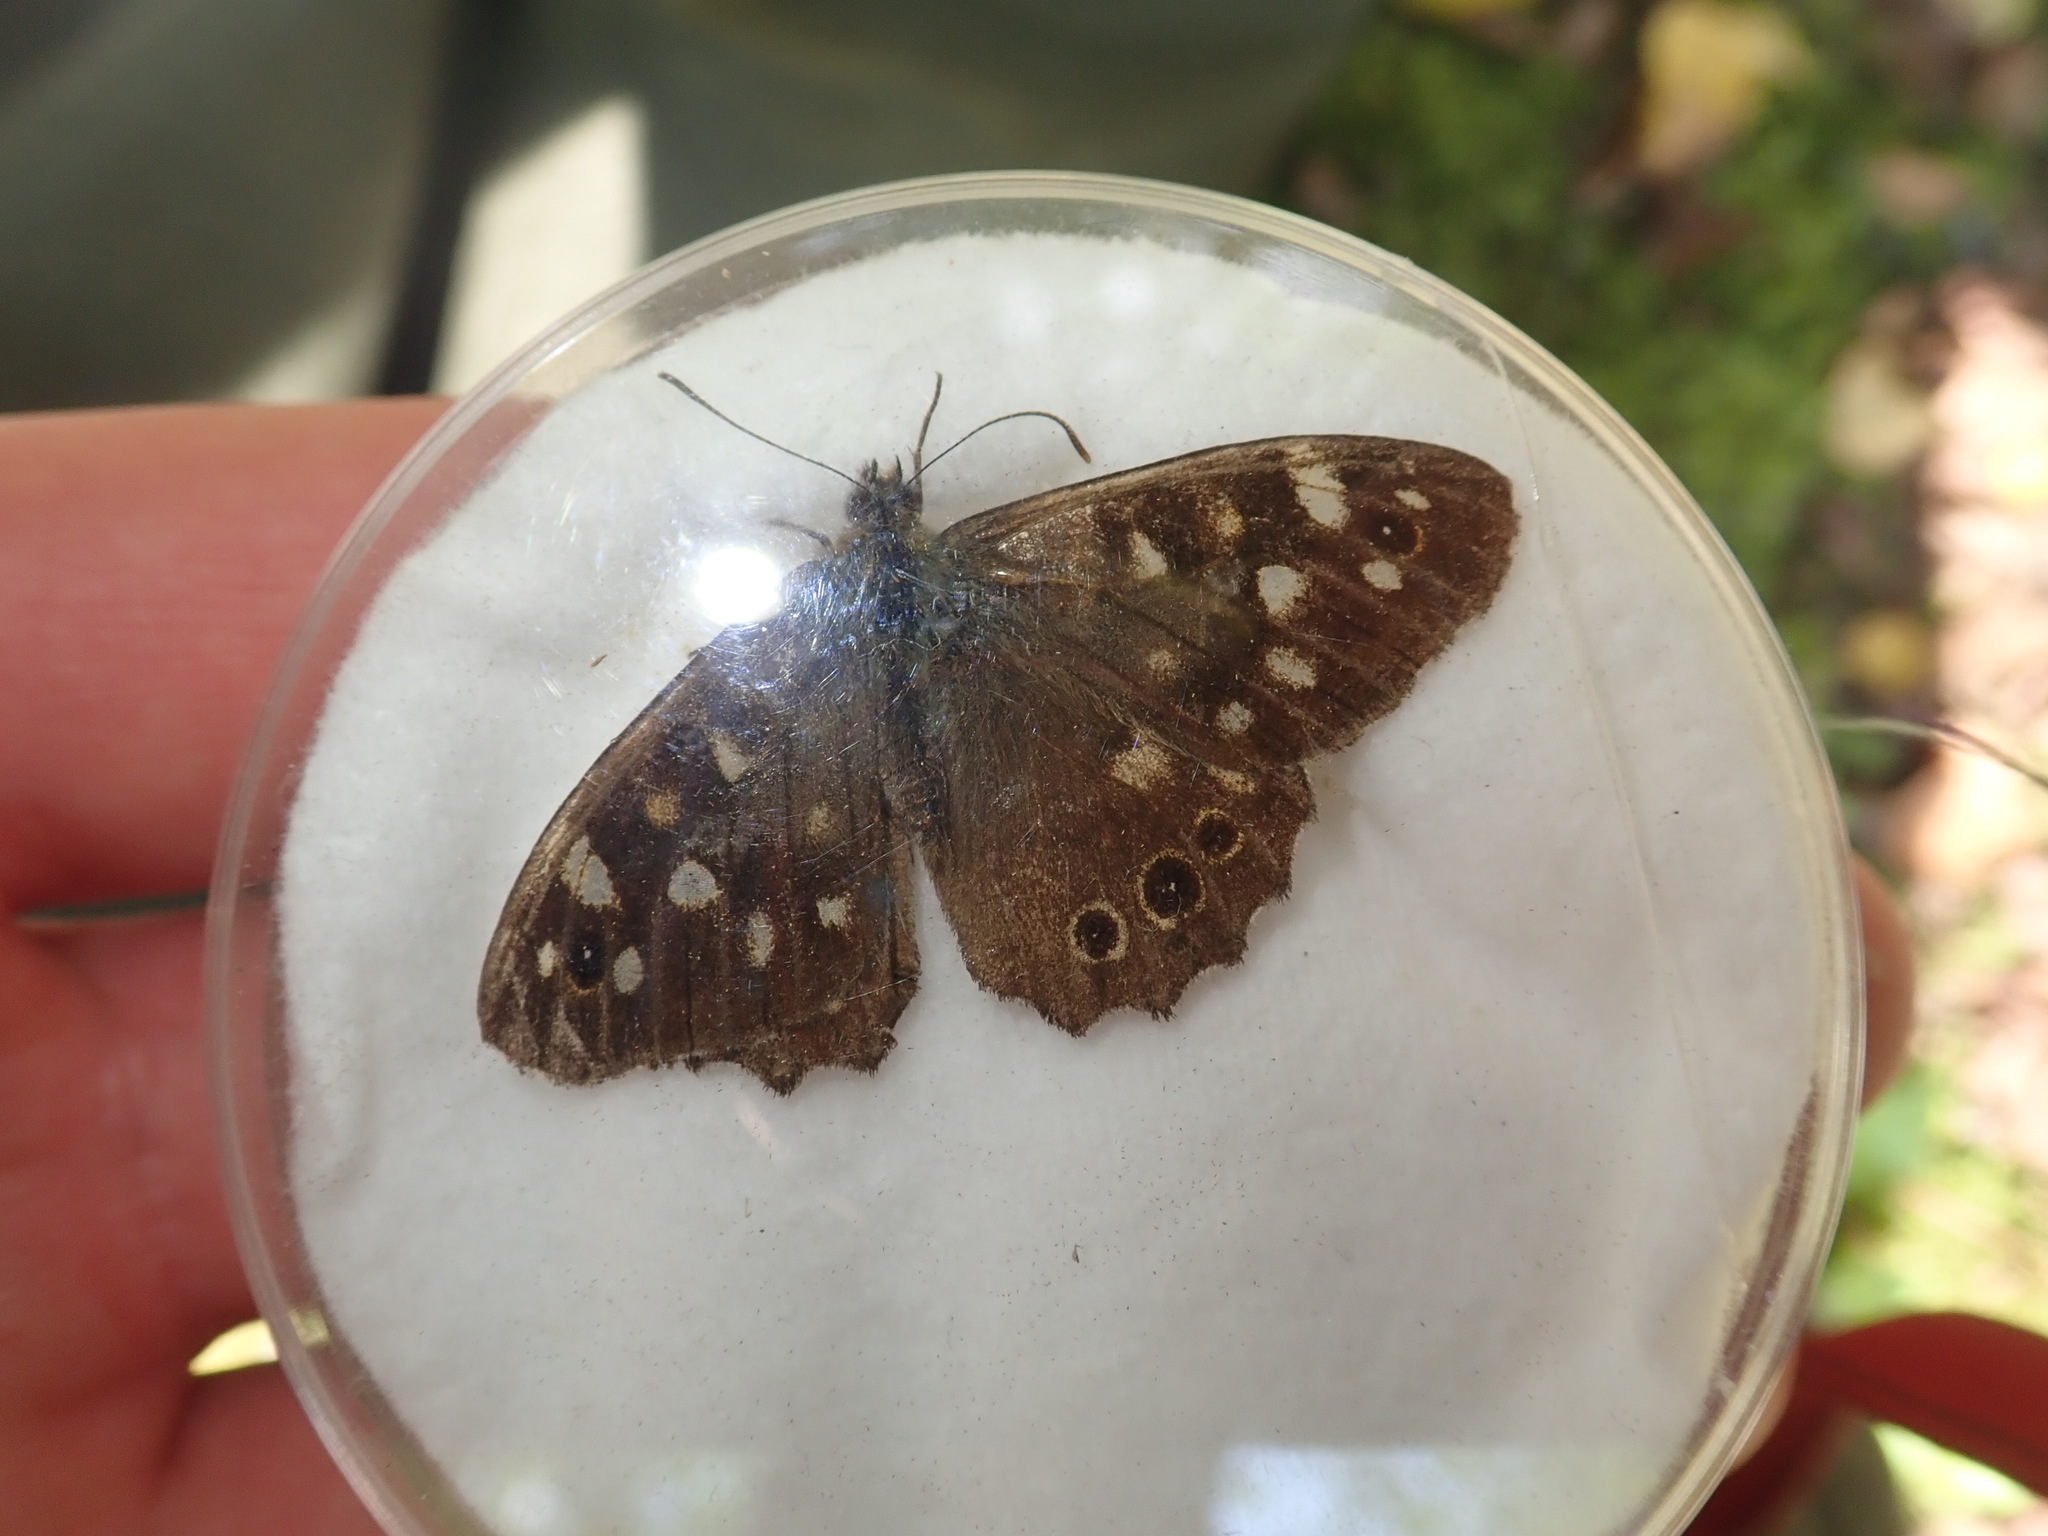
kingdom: Animalia
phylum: Arthropoda
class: Insecta
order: Lepidoptera
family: Nymphalidae
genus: Pararge
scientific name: Pararge aegeria
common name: Speckled wood
